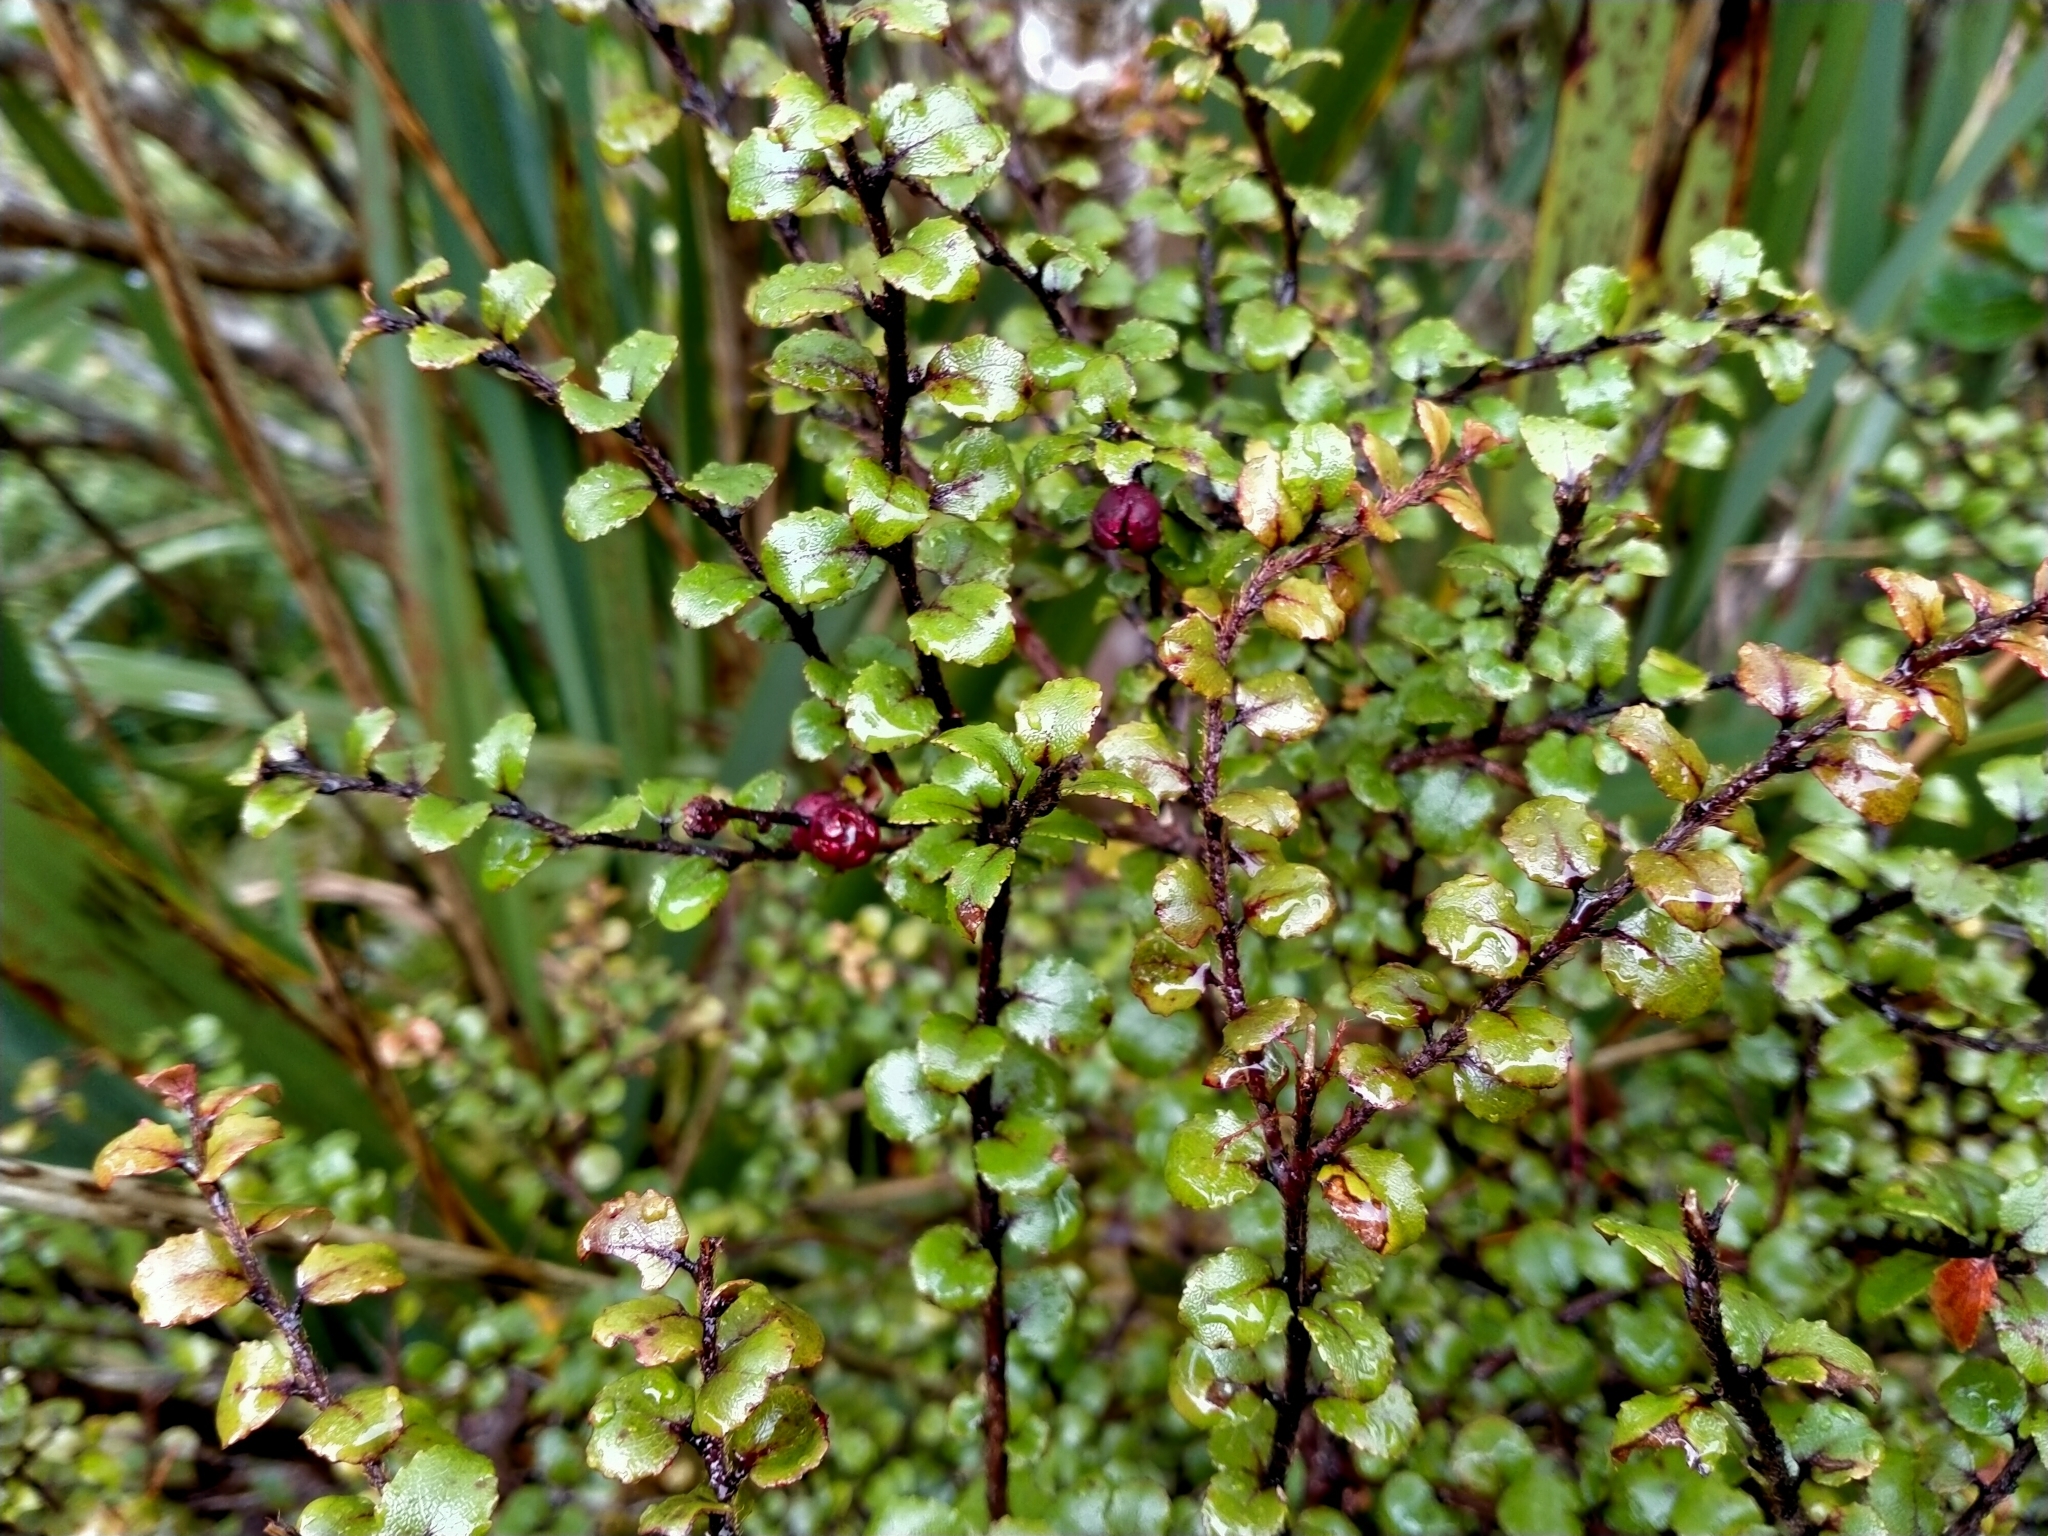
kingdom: Plantae
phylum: Tracheophyta
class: Magnoliopsida
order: Ericales
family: Ericaceae
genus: Gaultheria
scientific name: Gaultheria antipoda
